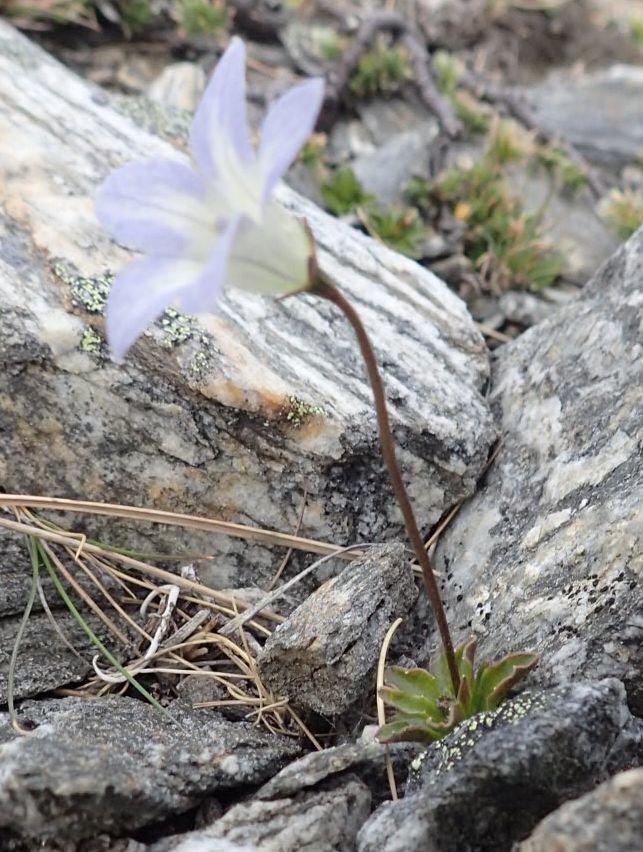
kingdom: Plantae
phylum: Tracheophyta
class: Magnoliopsida
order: Asterales
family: Campanulaceae
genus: Wahlenbergia
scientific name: Wahlenbergia albomarginata
